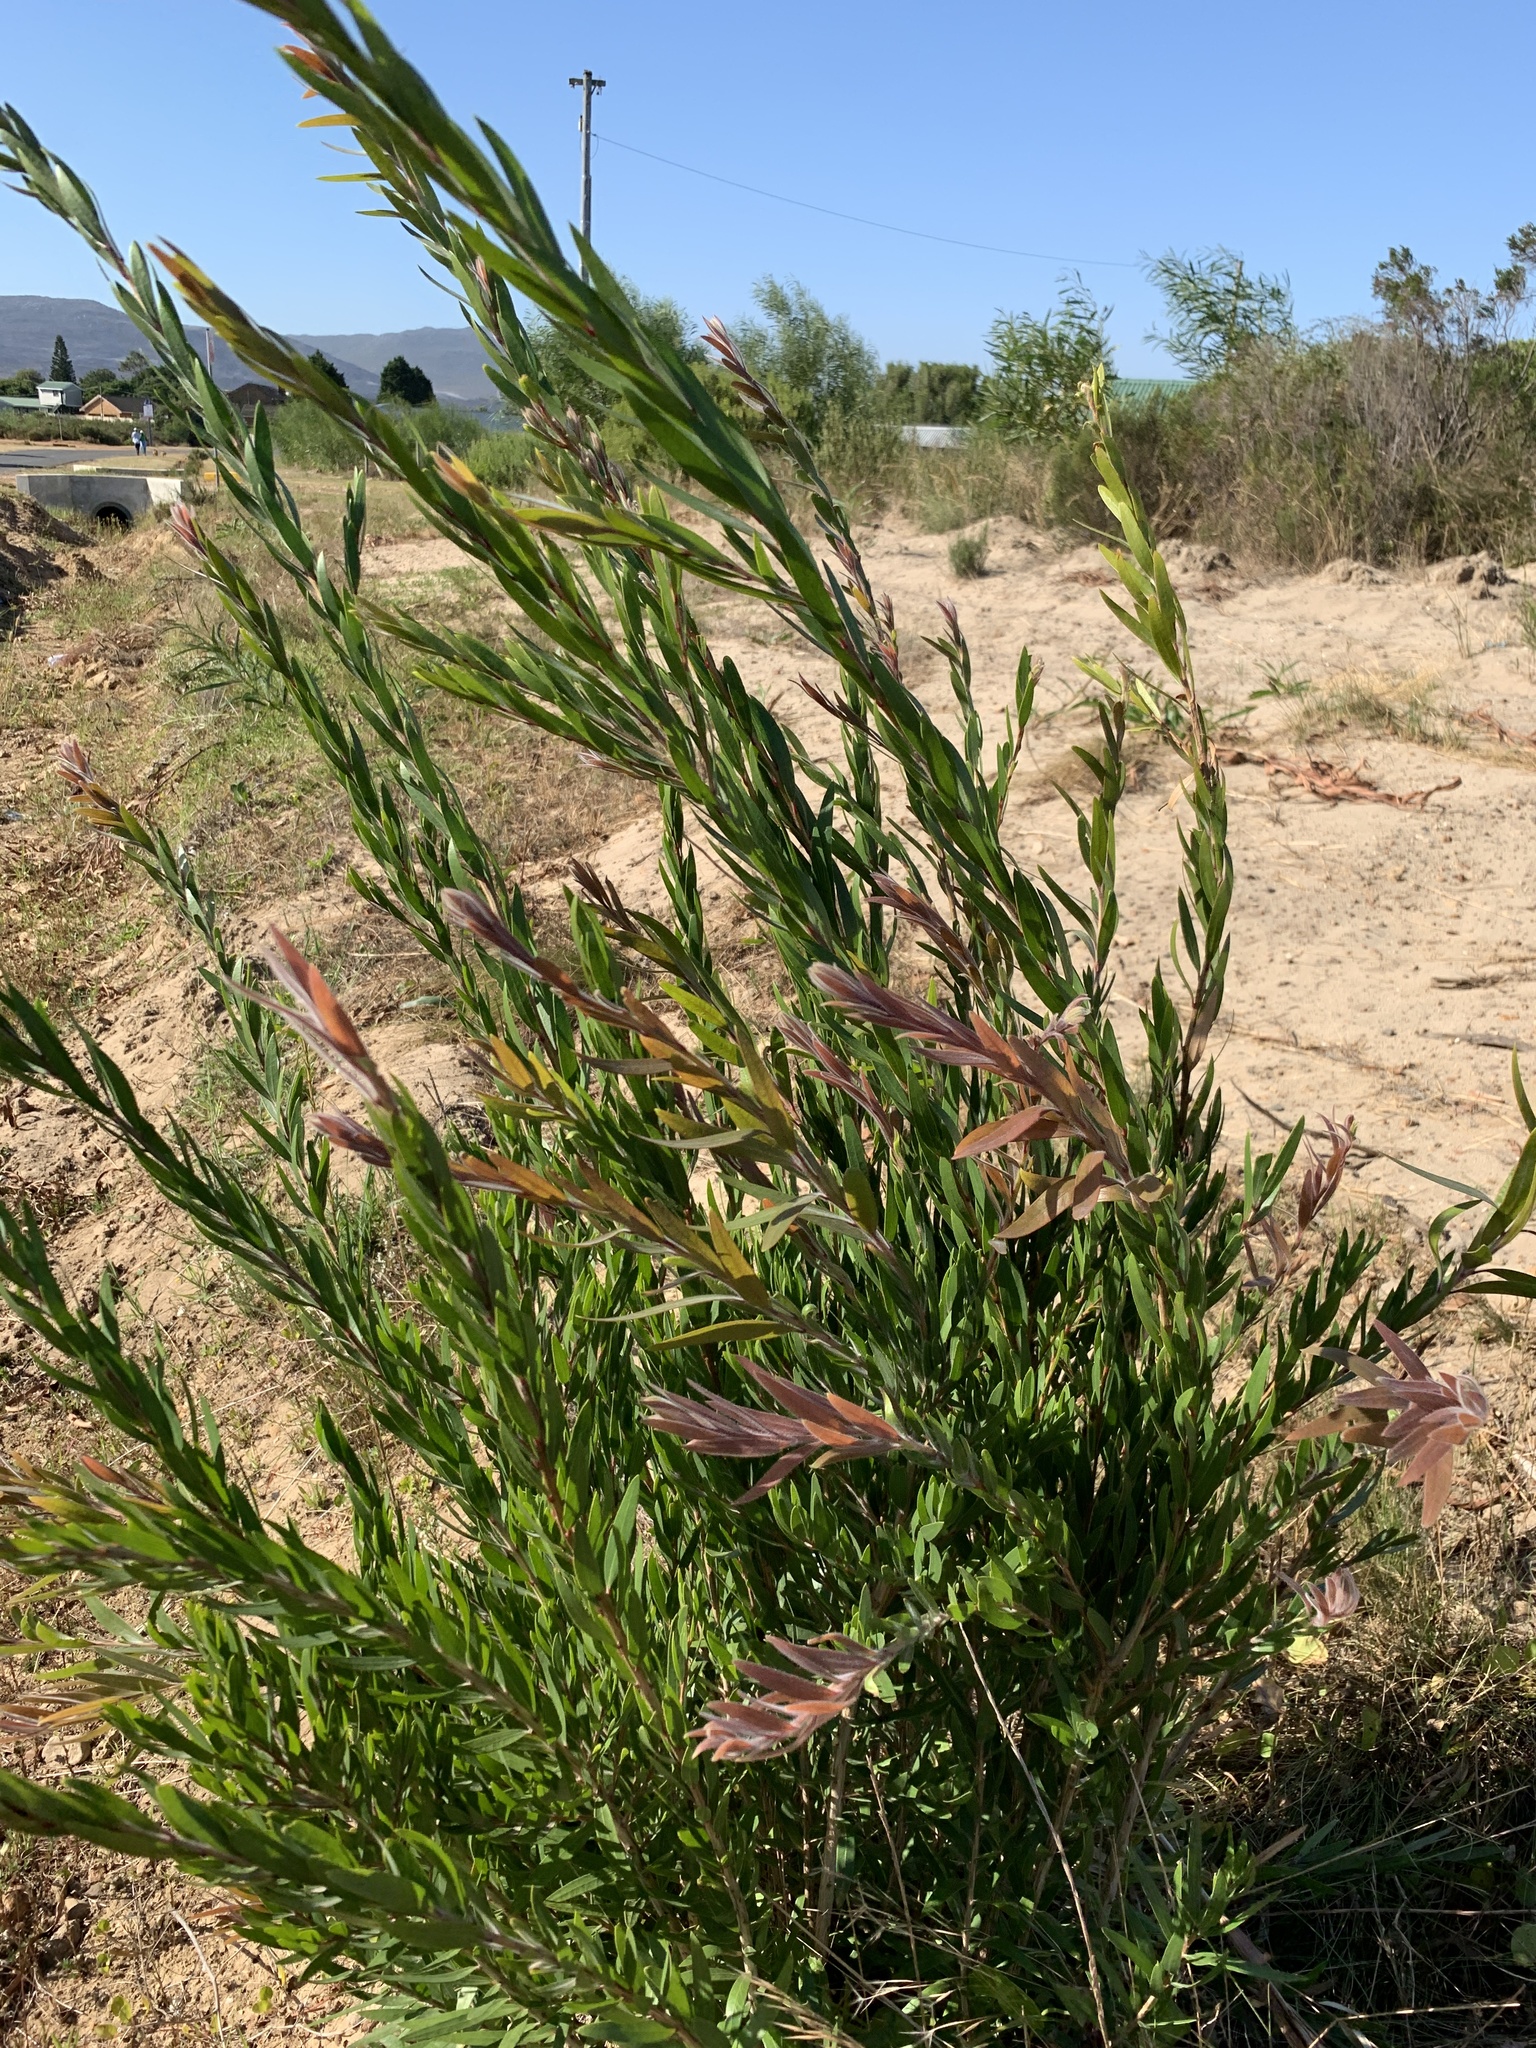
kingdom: Plantae
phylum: Tracheophyta
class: Magnoliopsida
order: Myrtales
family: Myrtaceae
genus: Callistemon
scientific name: Callistemon viminalis
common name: Drooping bottlebrush
